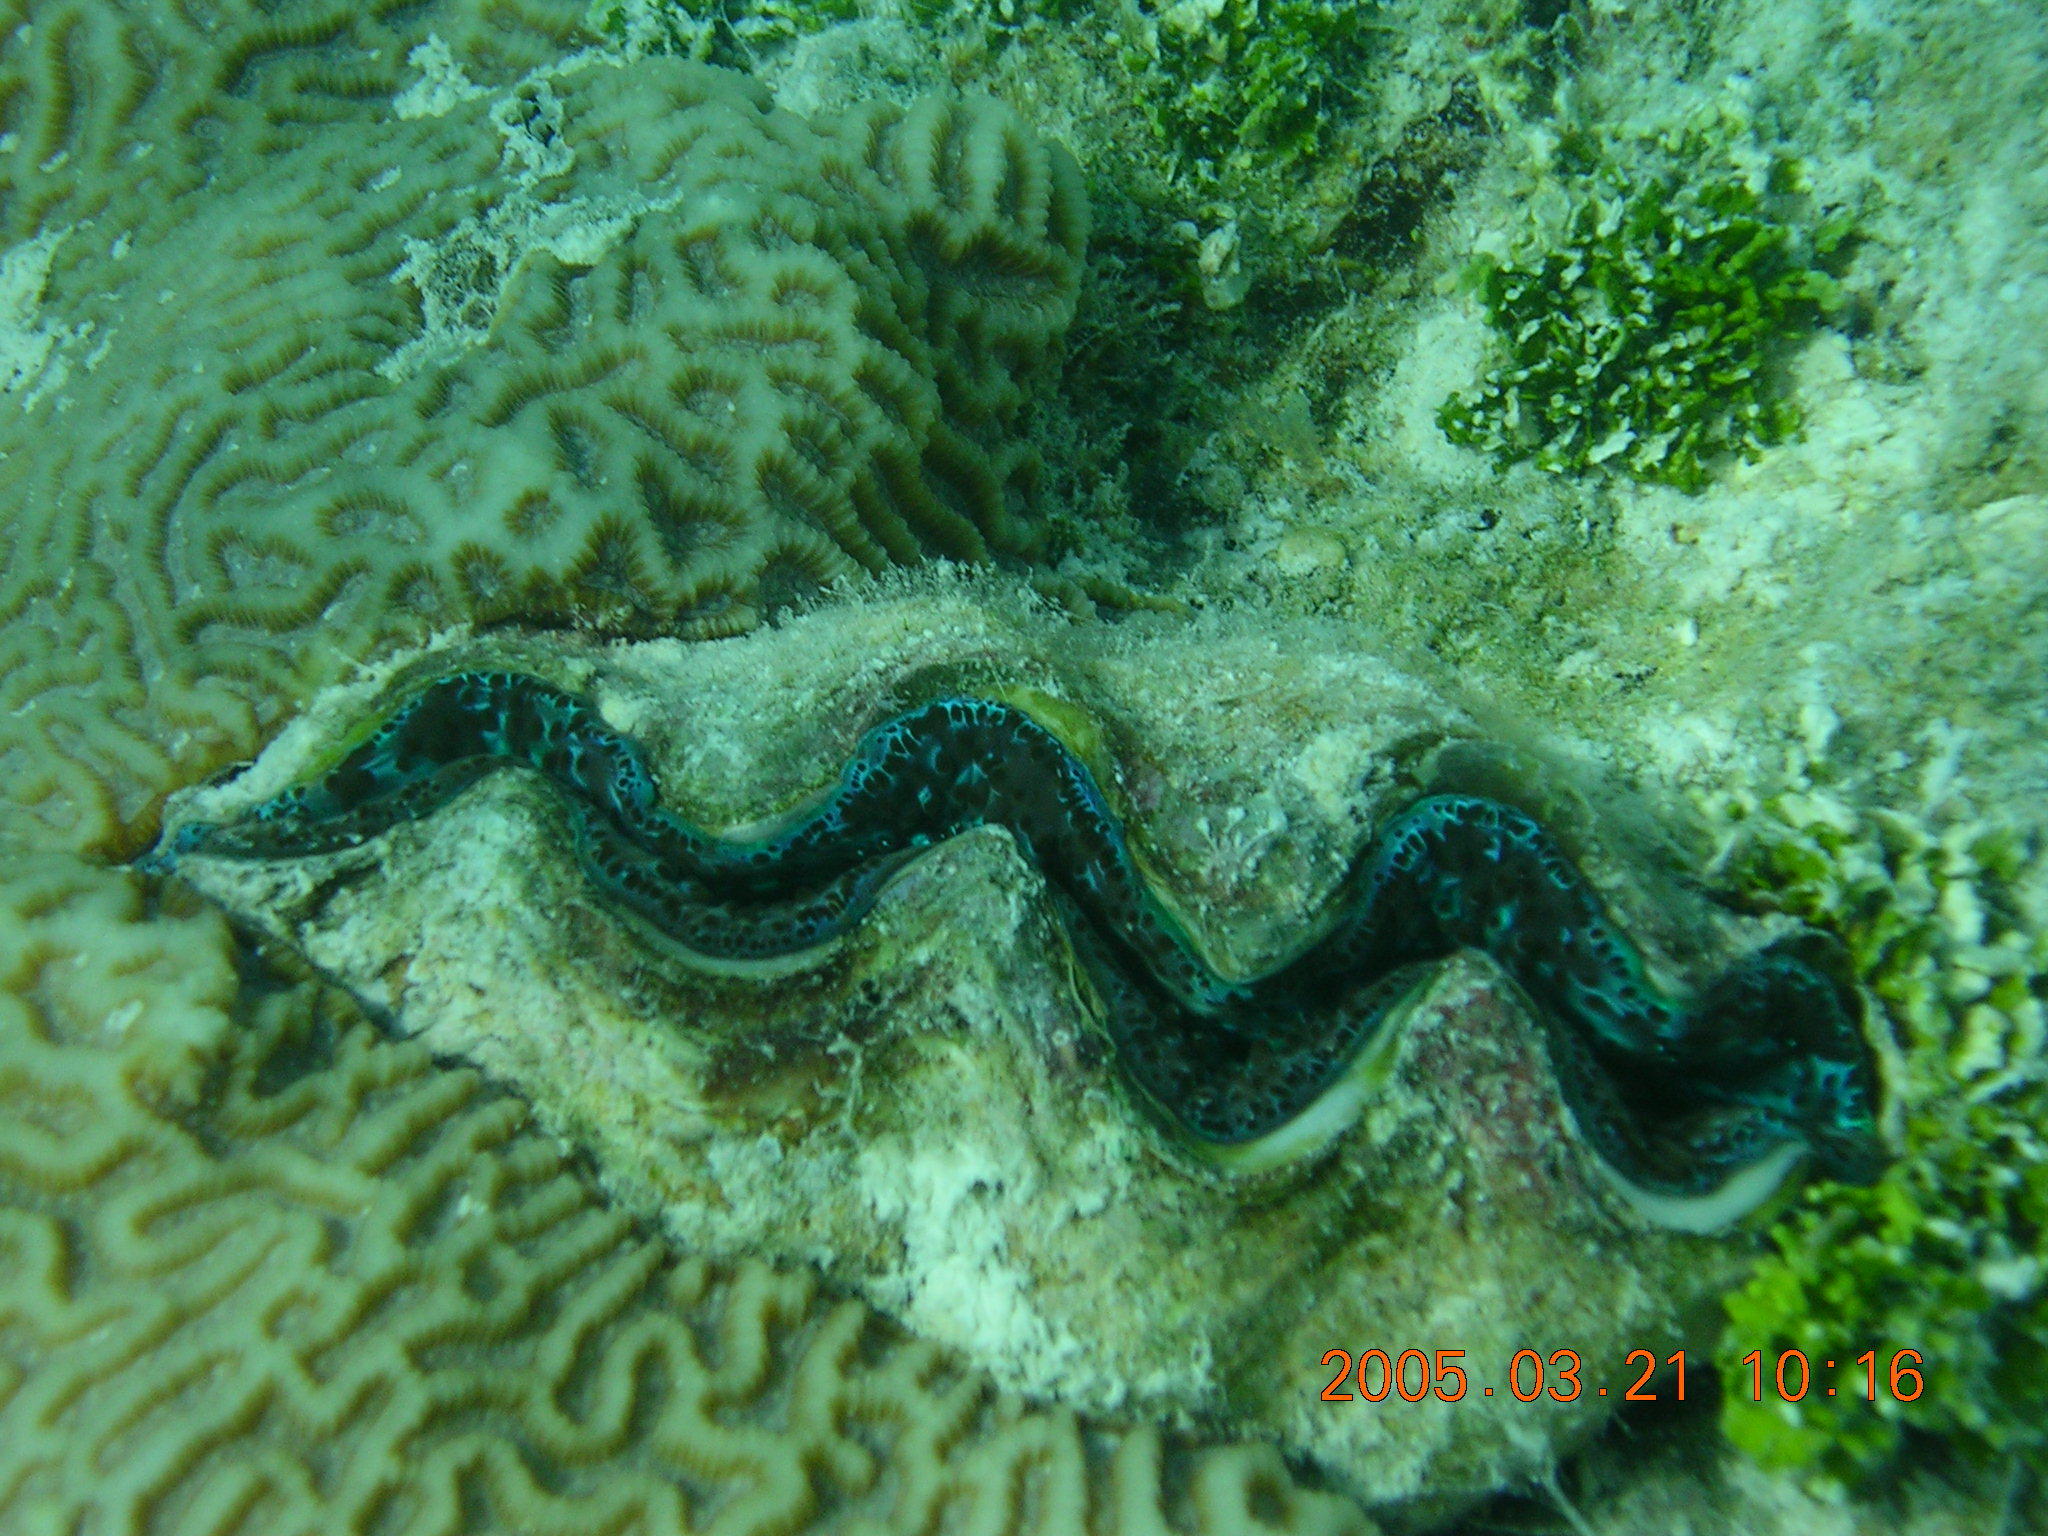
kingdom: Animalia
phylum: Mollusca
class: Bivalvia
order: Cardiida
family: Cardiidae
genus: Tridacna
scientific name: Tridacna maxima
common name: Small giant clam
